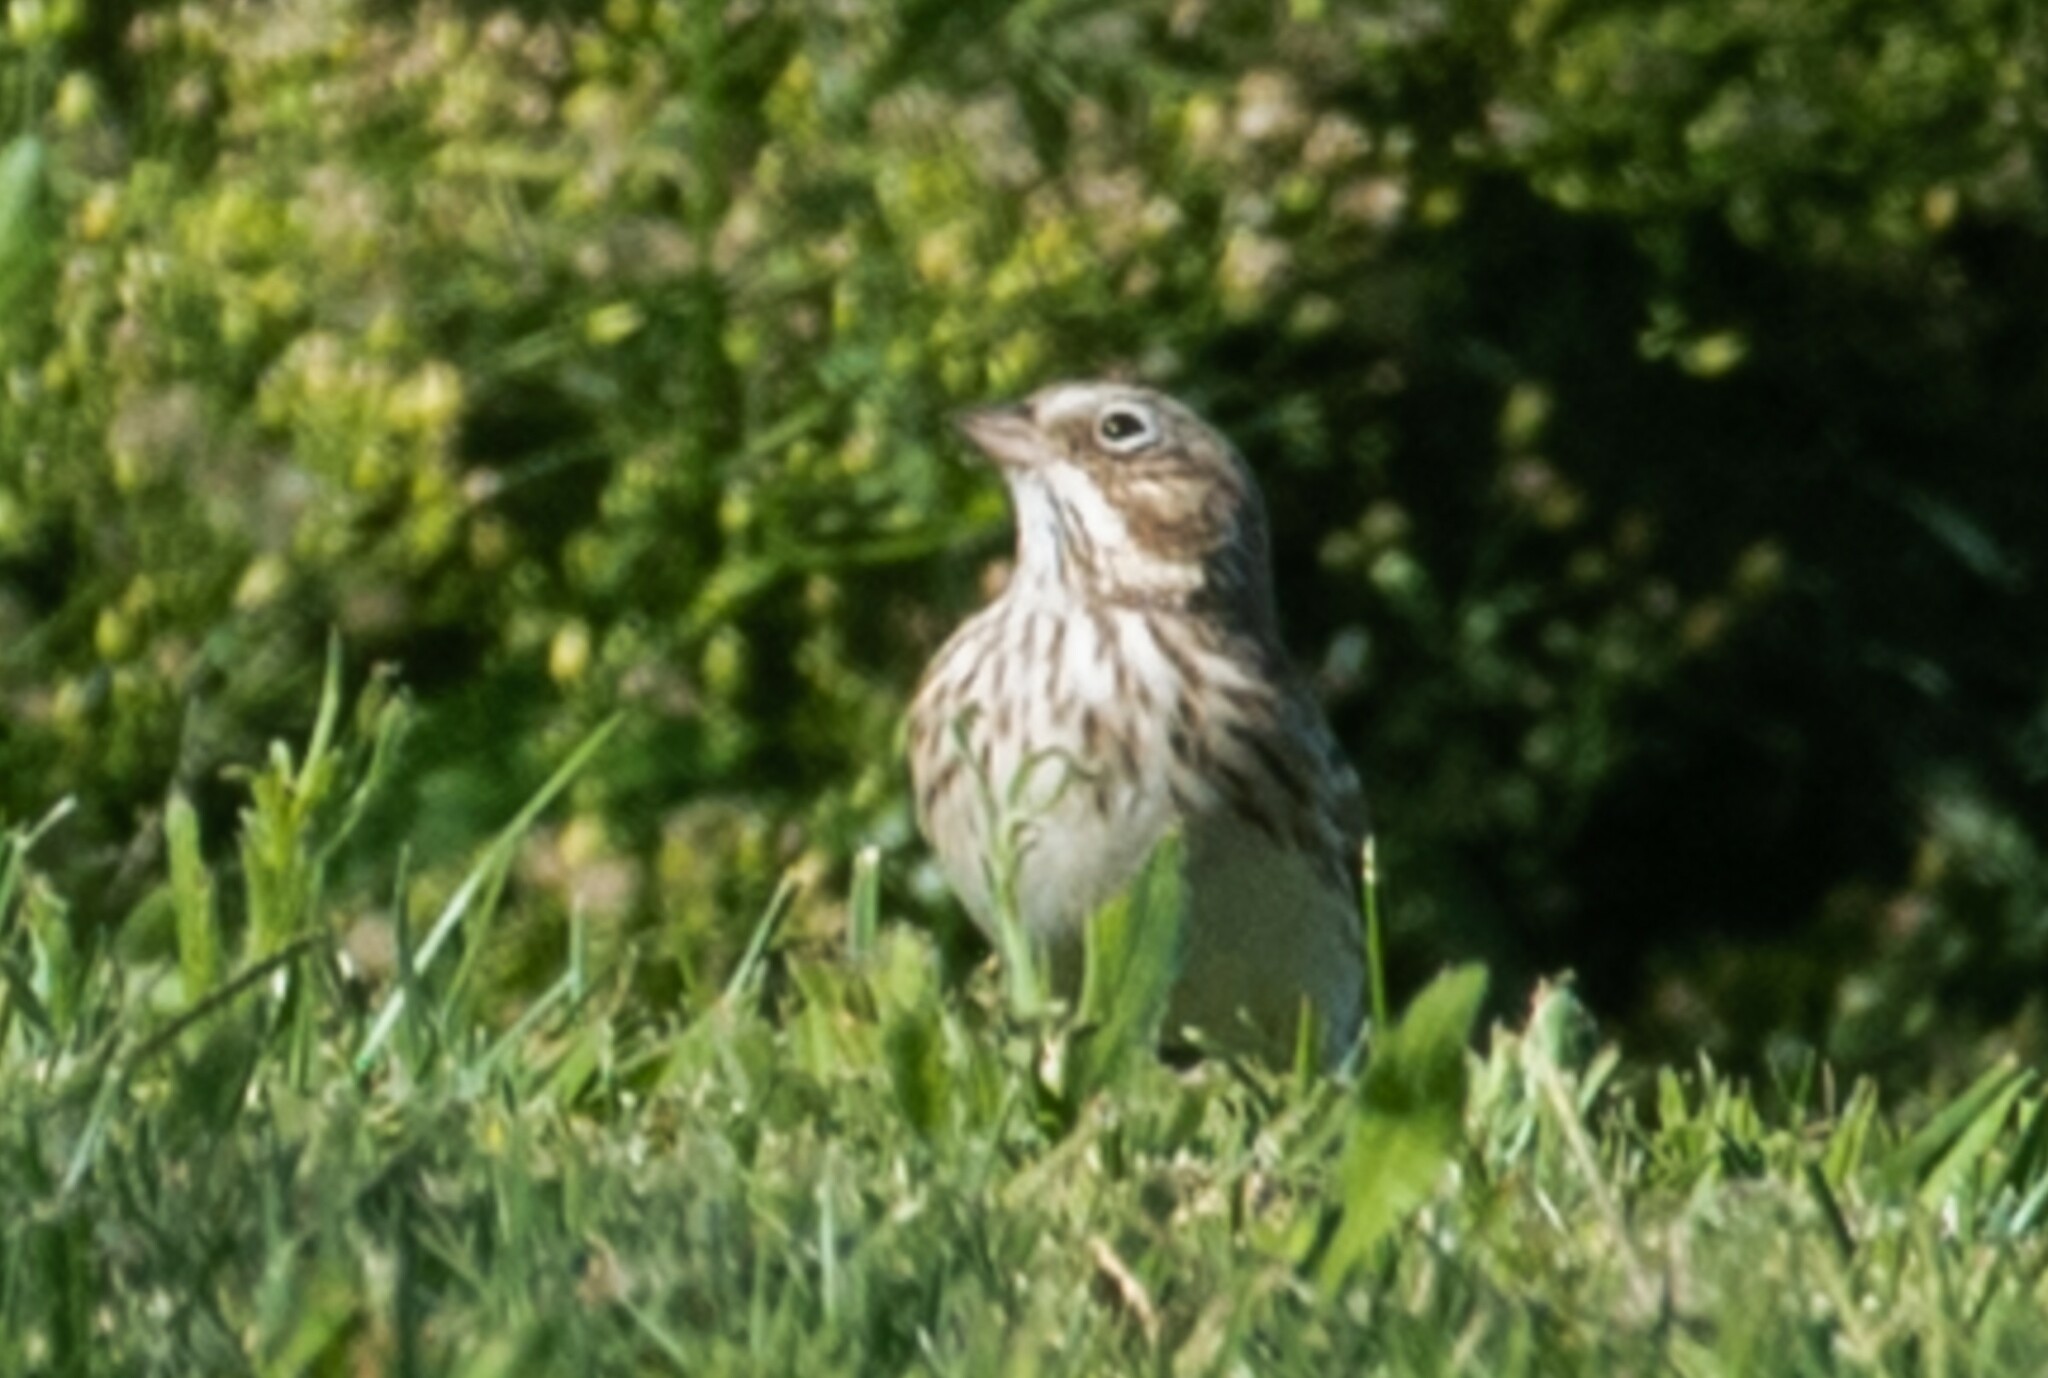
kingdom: Animalia
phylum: Chordata
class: Aves
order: Passeriformes
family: Passerellidae
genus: Pooecetes
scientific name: Pooecetes gramineus
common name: Vesper sparrow
